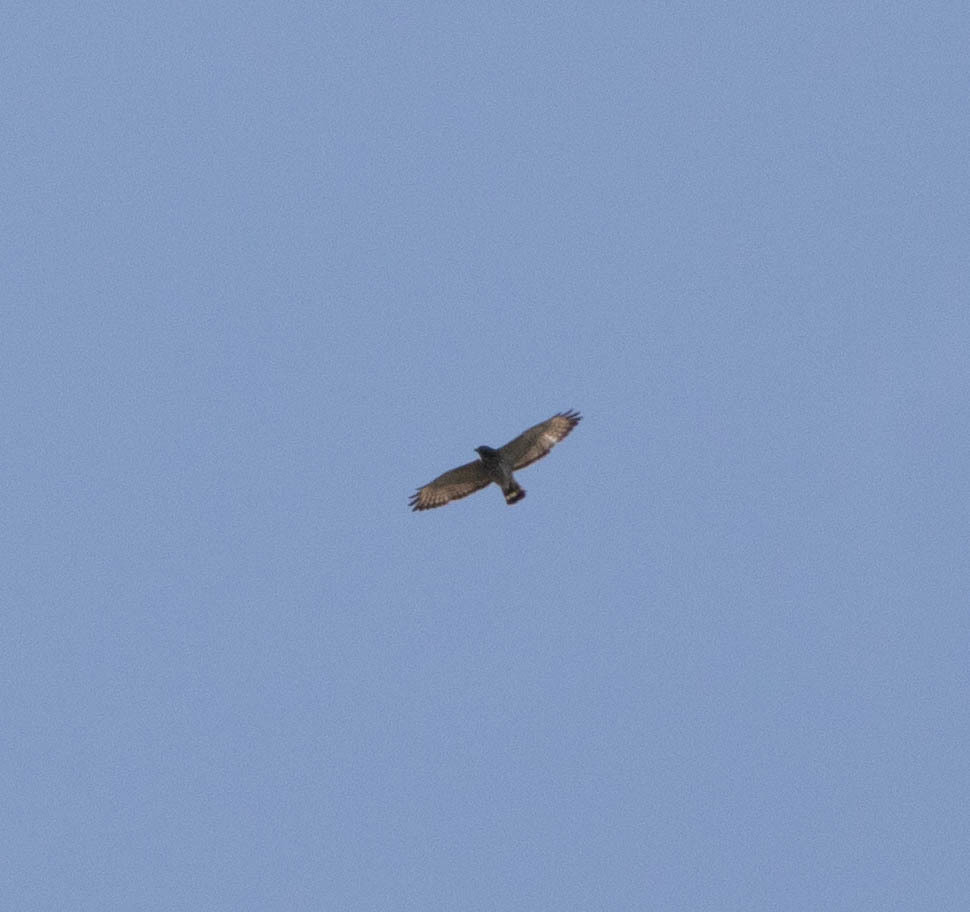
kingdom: Animalia
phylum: Chordata
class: Aves
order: Accipitriformes
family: Accipitridae
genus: Buteo
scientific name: Buteo platypterus
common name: Broad-winged hawk
